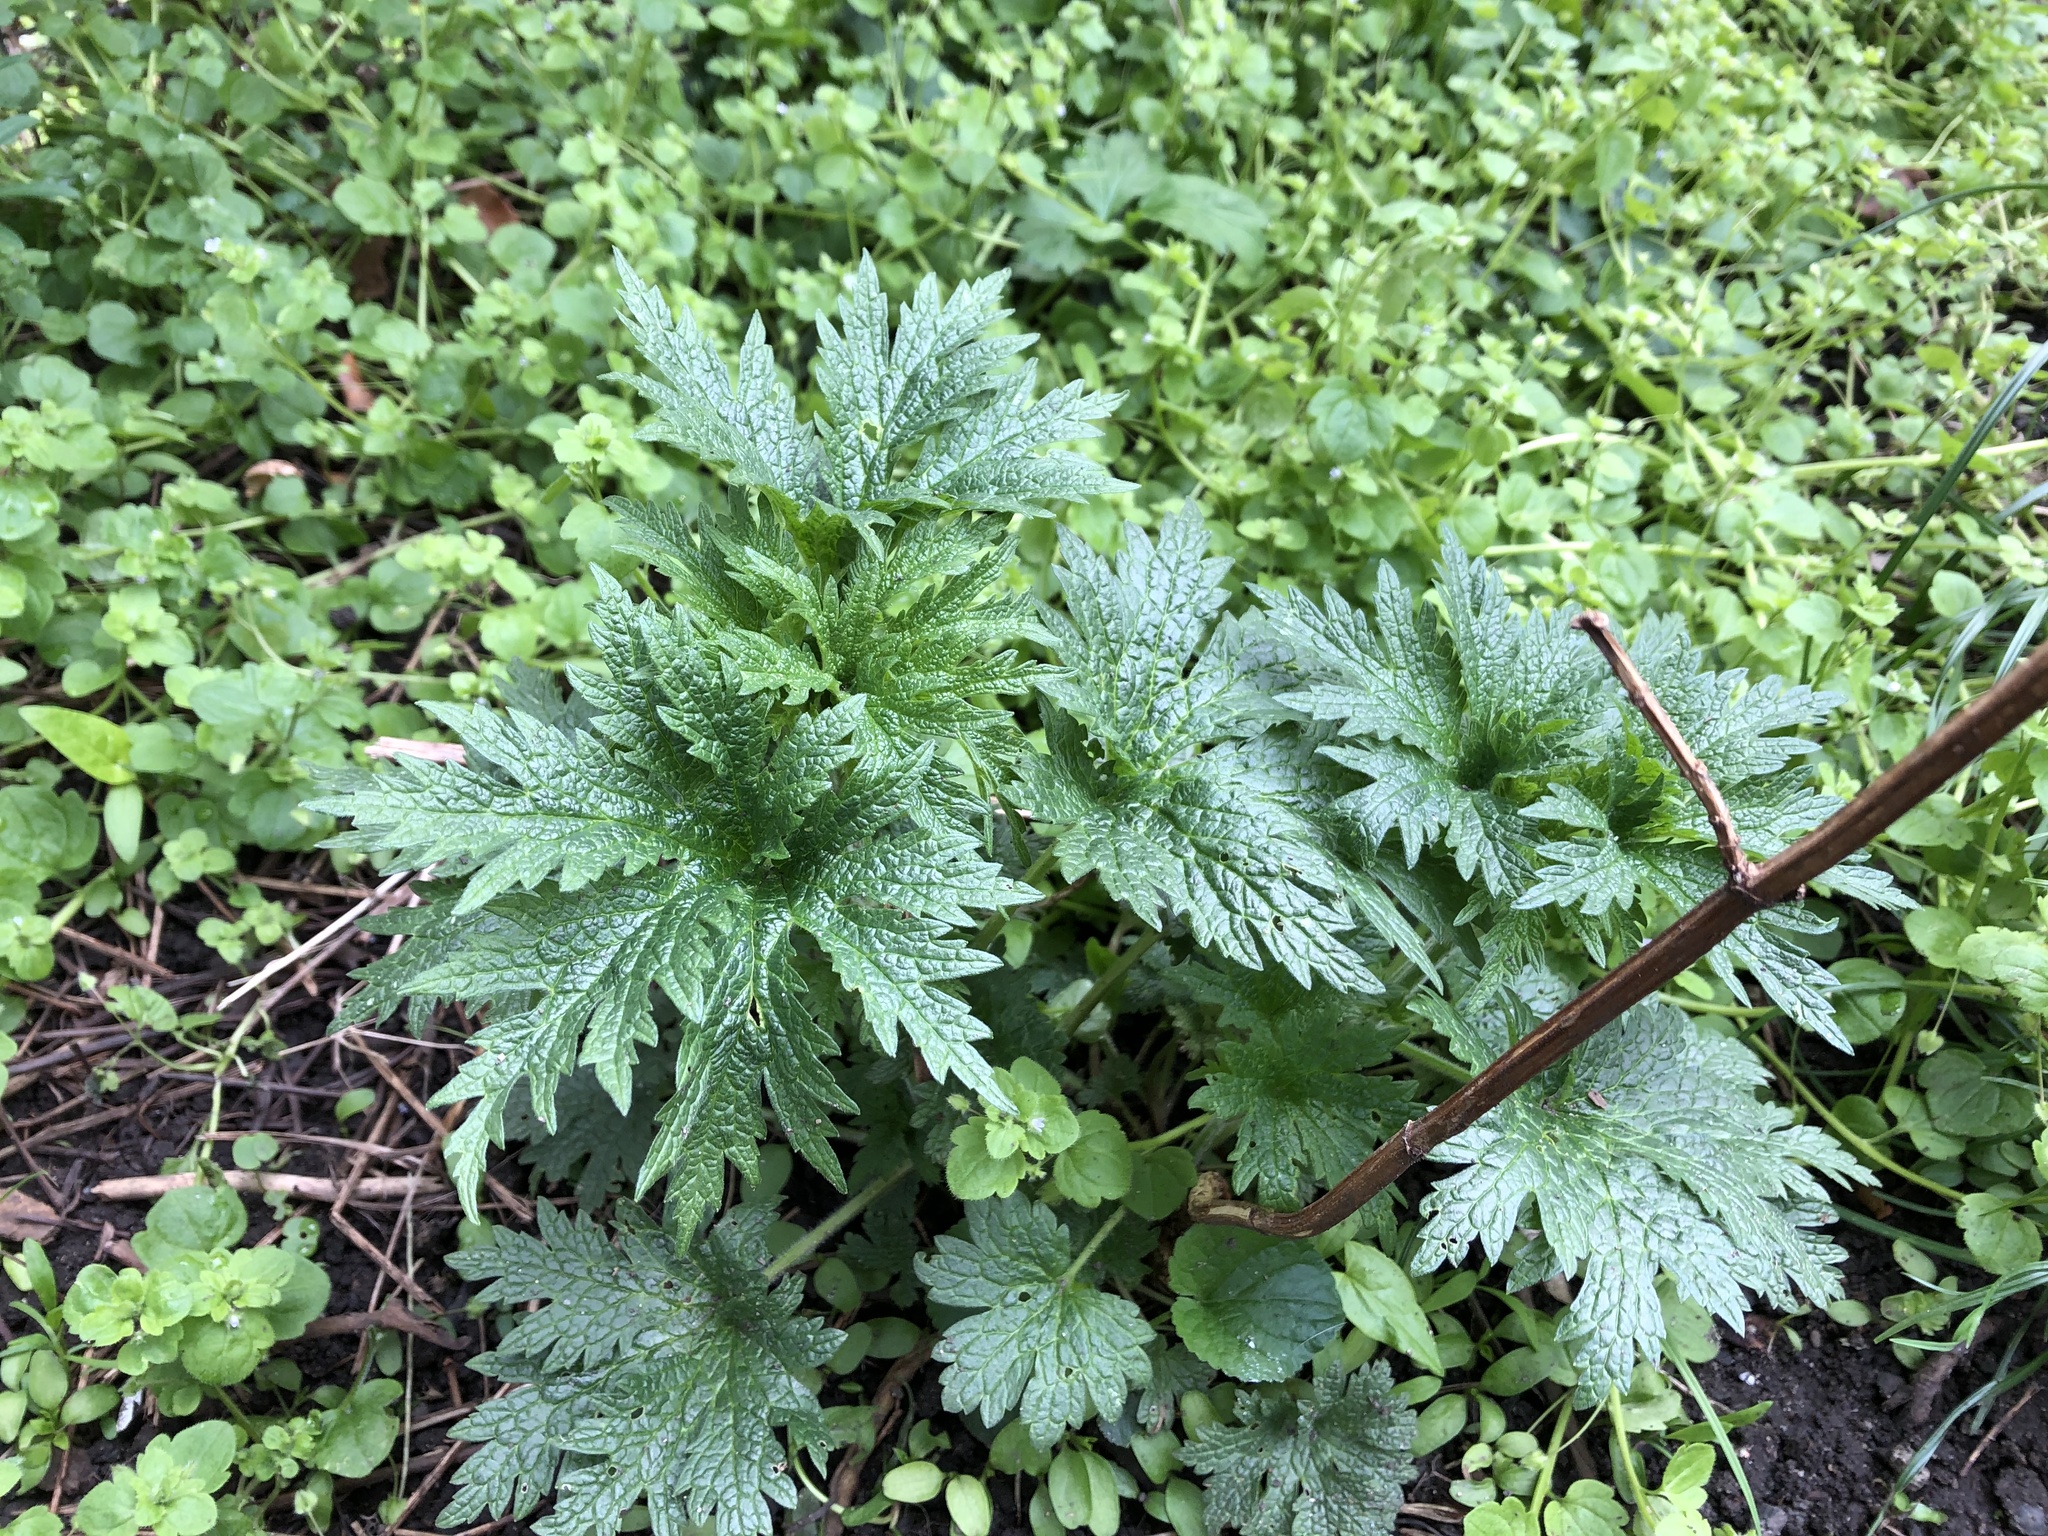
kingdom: Plantae
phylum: Tracheophyta
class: Magnoliopsida
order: Lamiales
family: Lamiaceae
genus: Leonurus
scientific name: Leonurus cardiaca
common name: Motherwort
